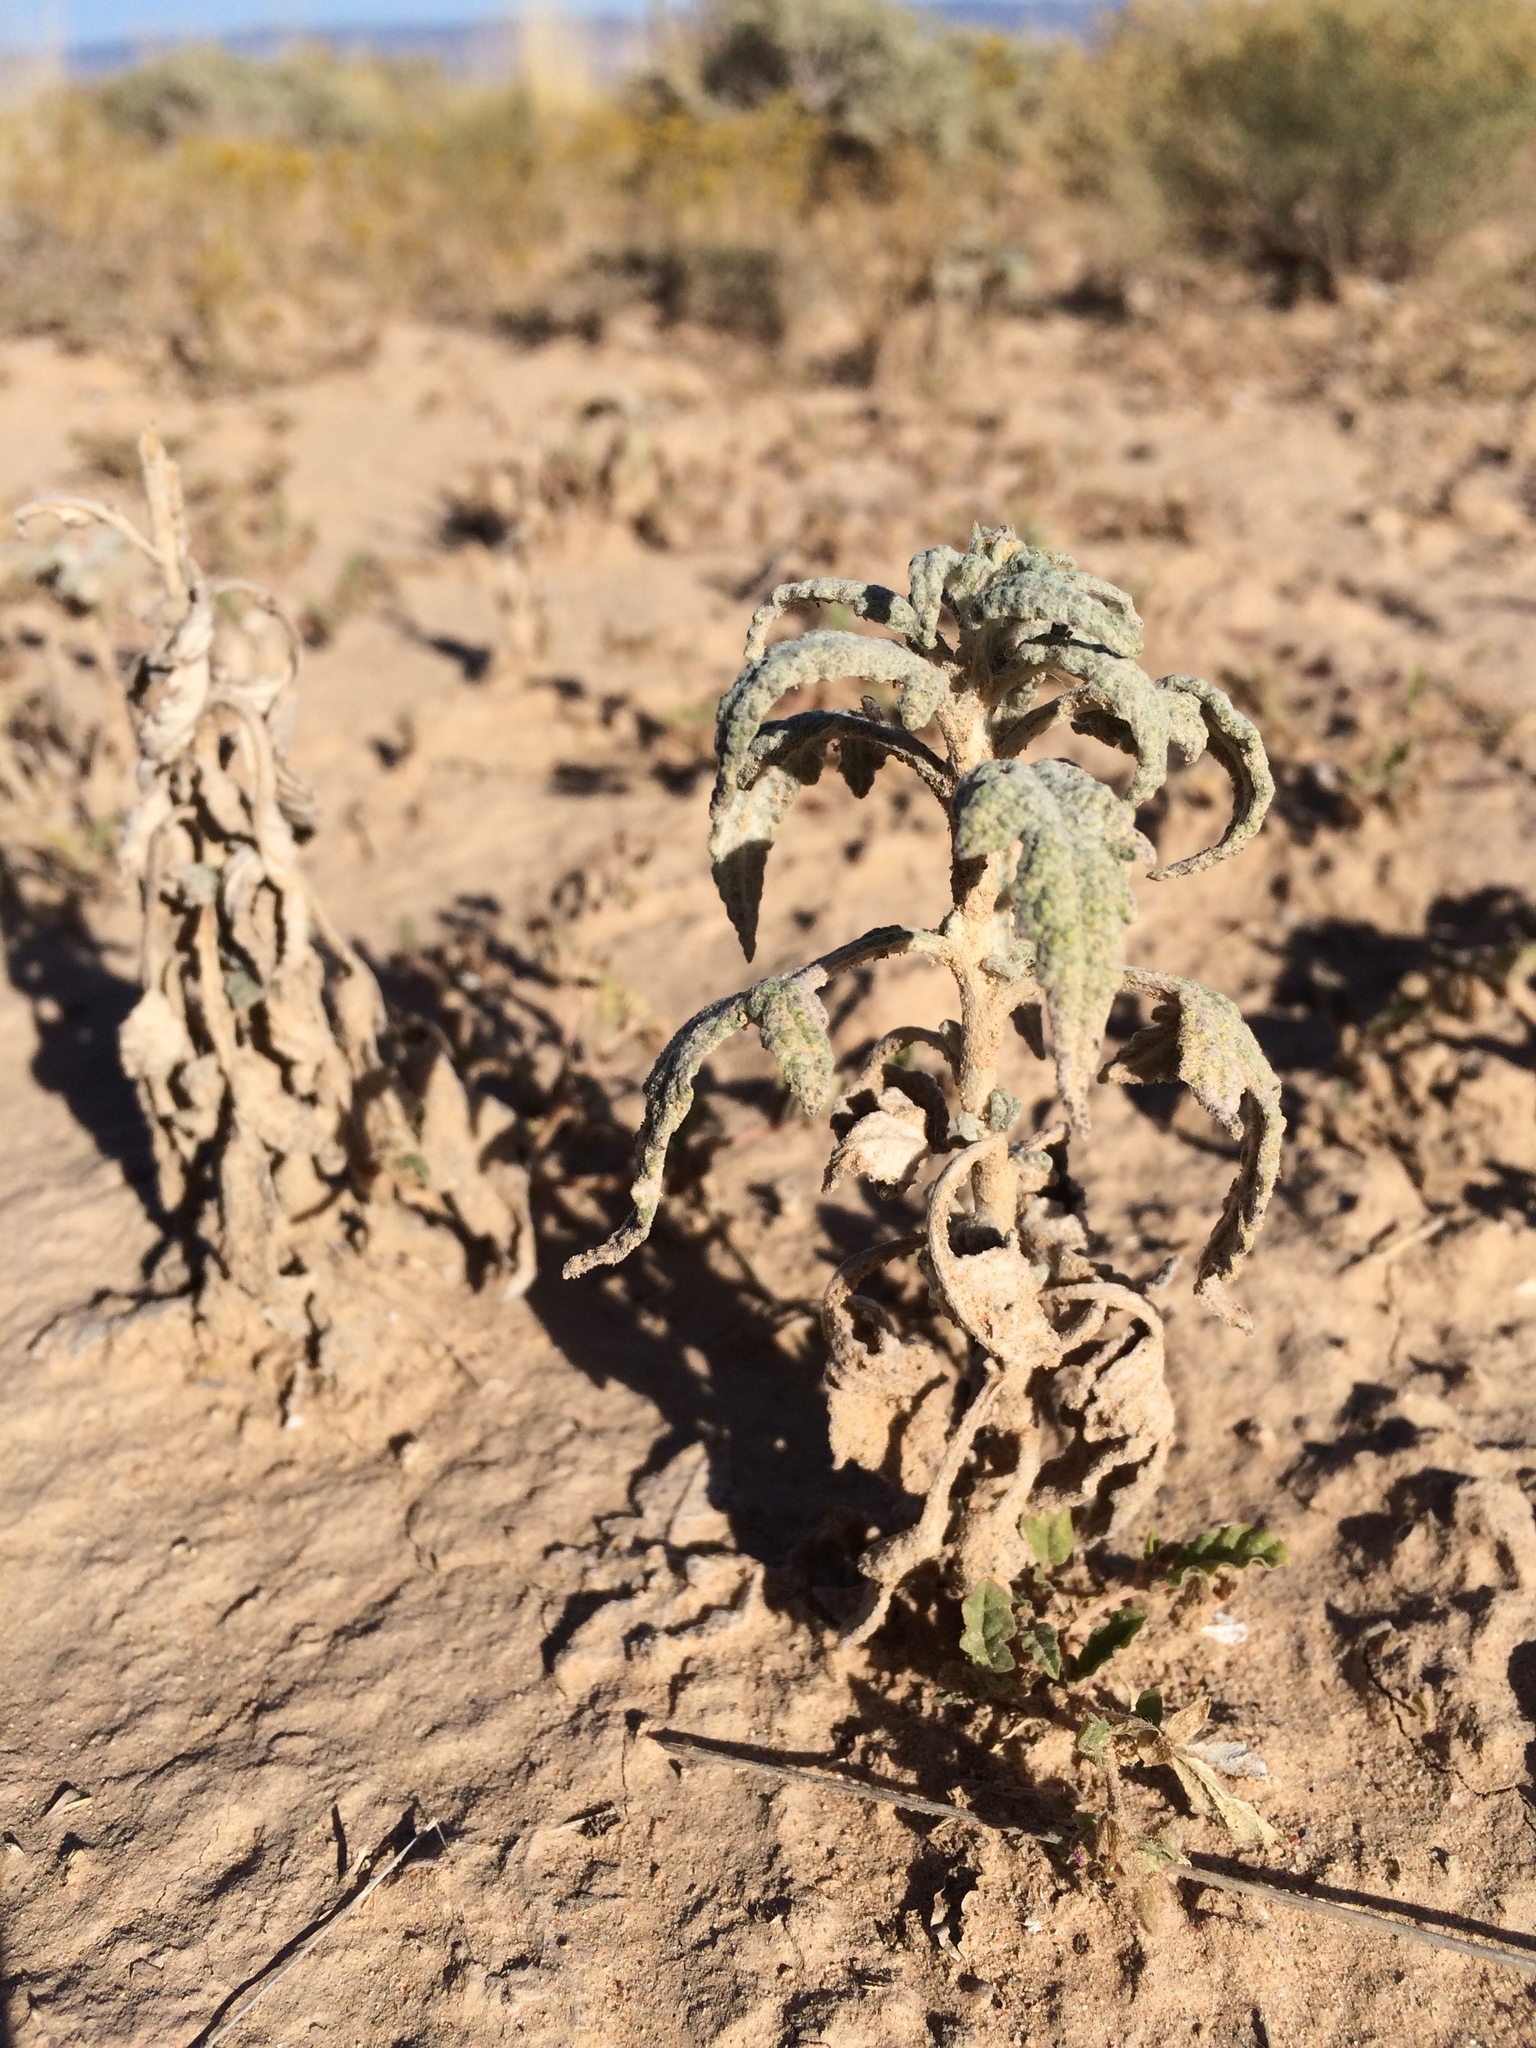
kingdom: Plantae
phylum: Tracheophyta
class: Magnoliopsida
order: Asterales
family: Asteraceae
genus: Euphrosyne
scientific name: Euphrosyne dealbata
